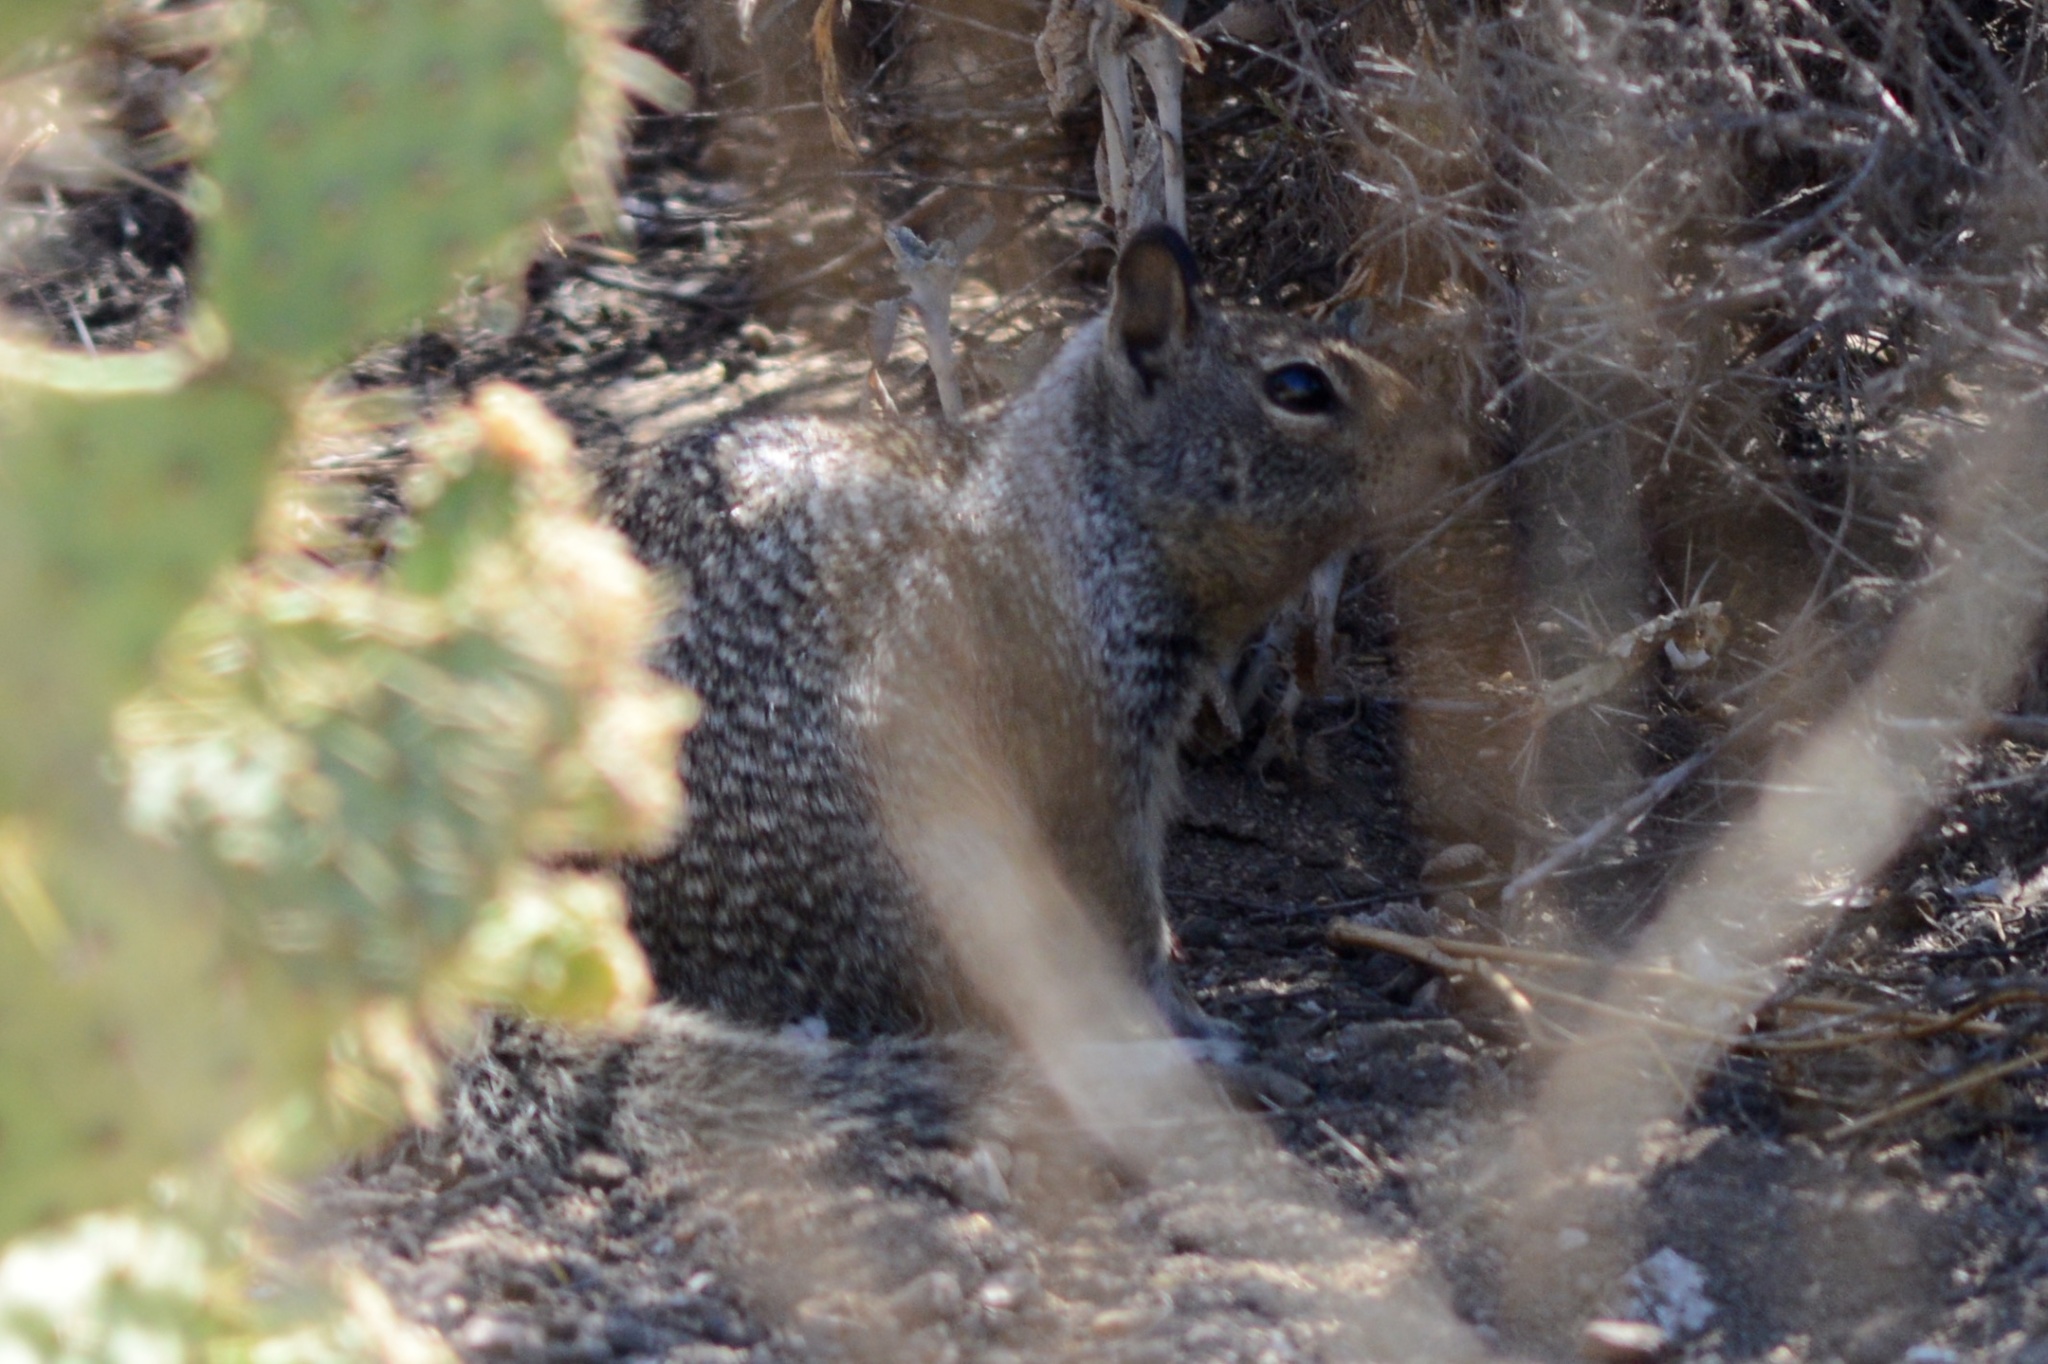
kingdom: Animalia
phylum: Chordata
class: Mammalia
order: Rodentia
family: Sciuridae
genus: Otospermophilus
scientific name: Otospermophilus beecheyi
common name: California ground squirrel
